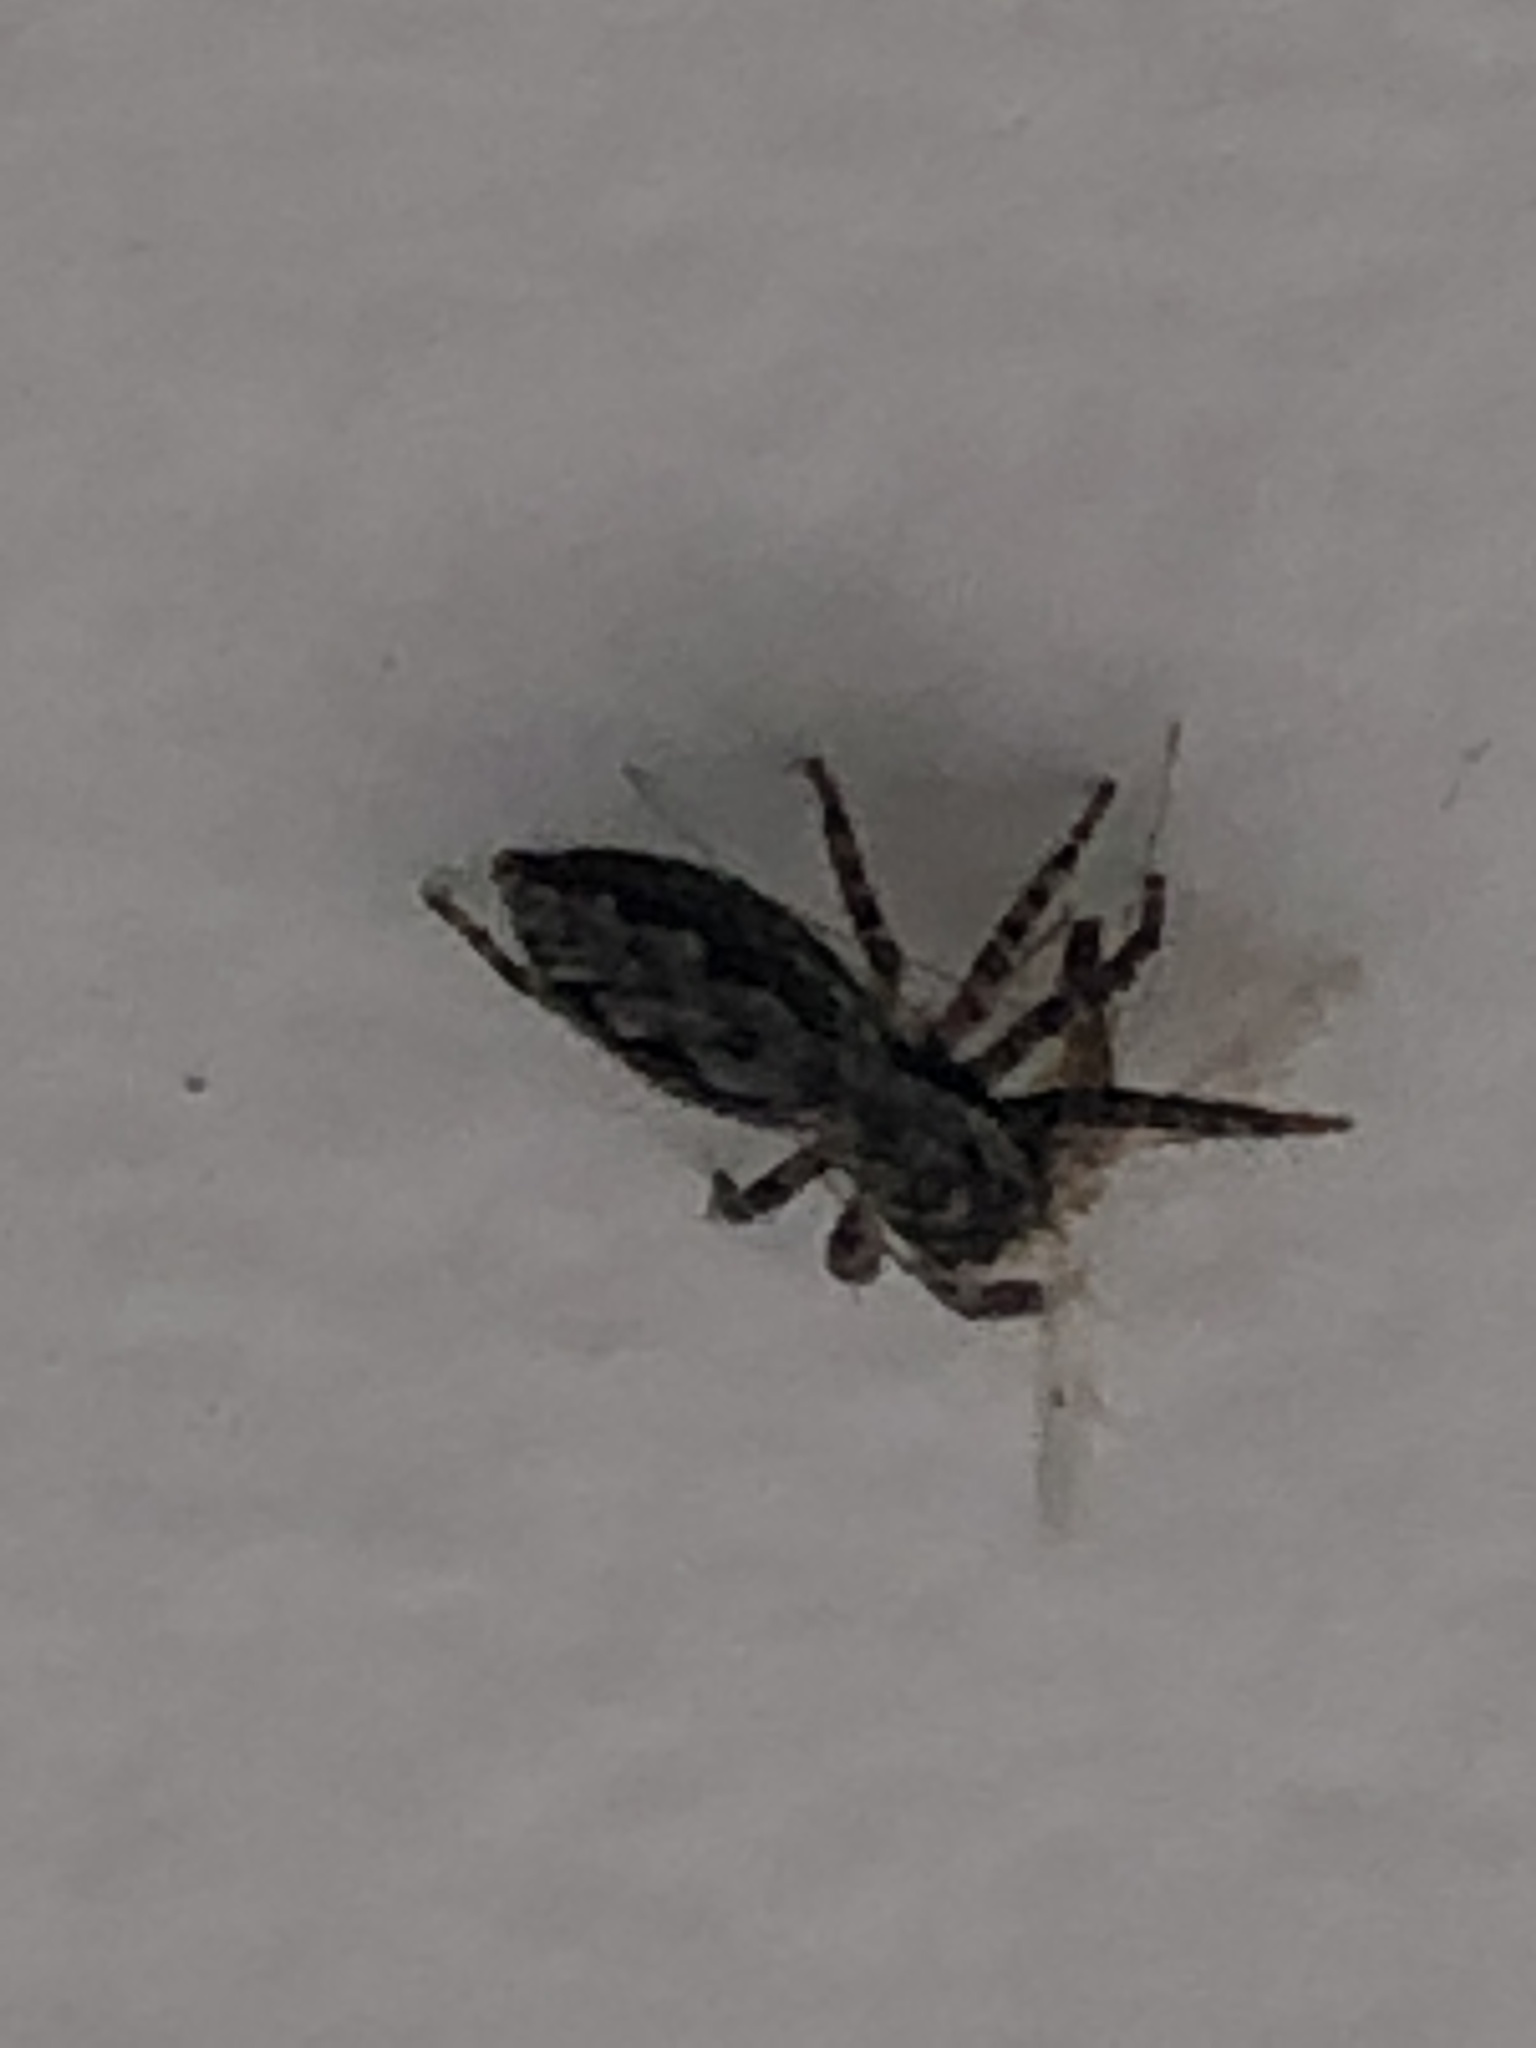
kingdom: Animalia
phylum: Arthropoda
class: Arachnida
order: Araneae
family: Salticidae
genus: Platycryptus
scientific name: Platycryptus undatus
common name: Tan jumping spider
